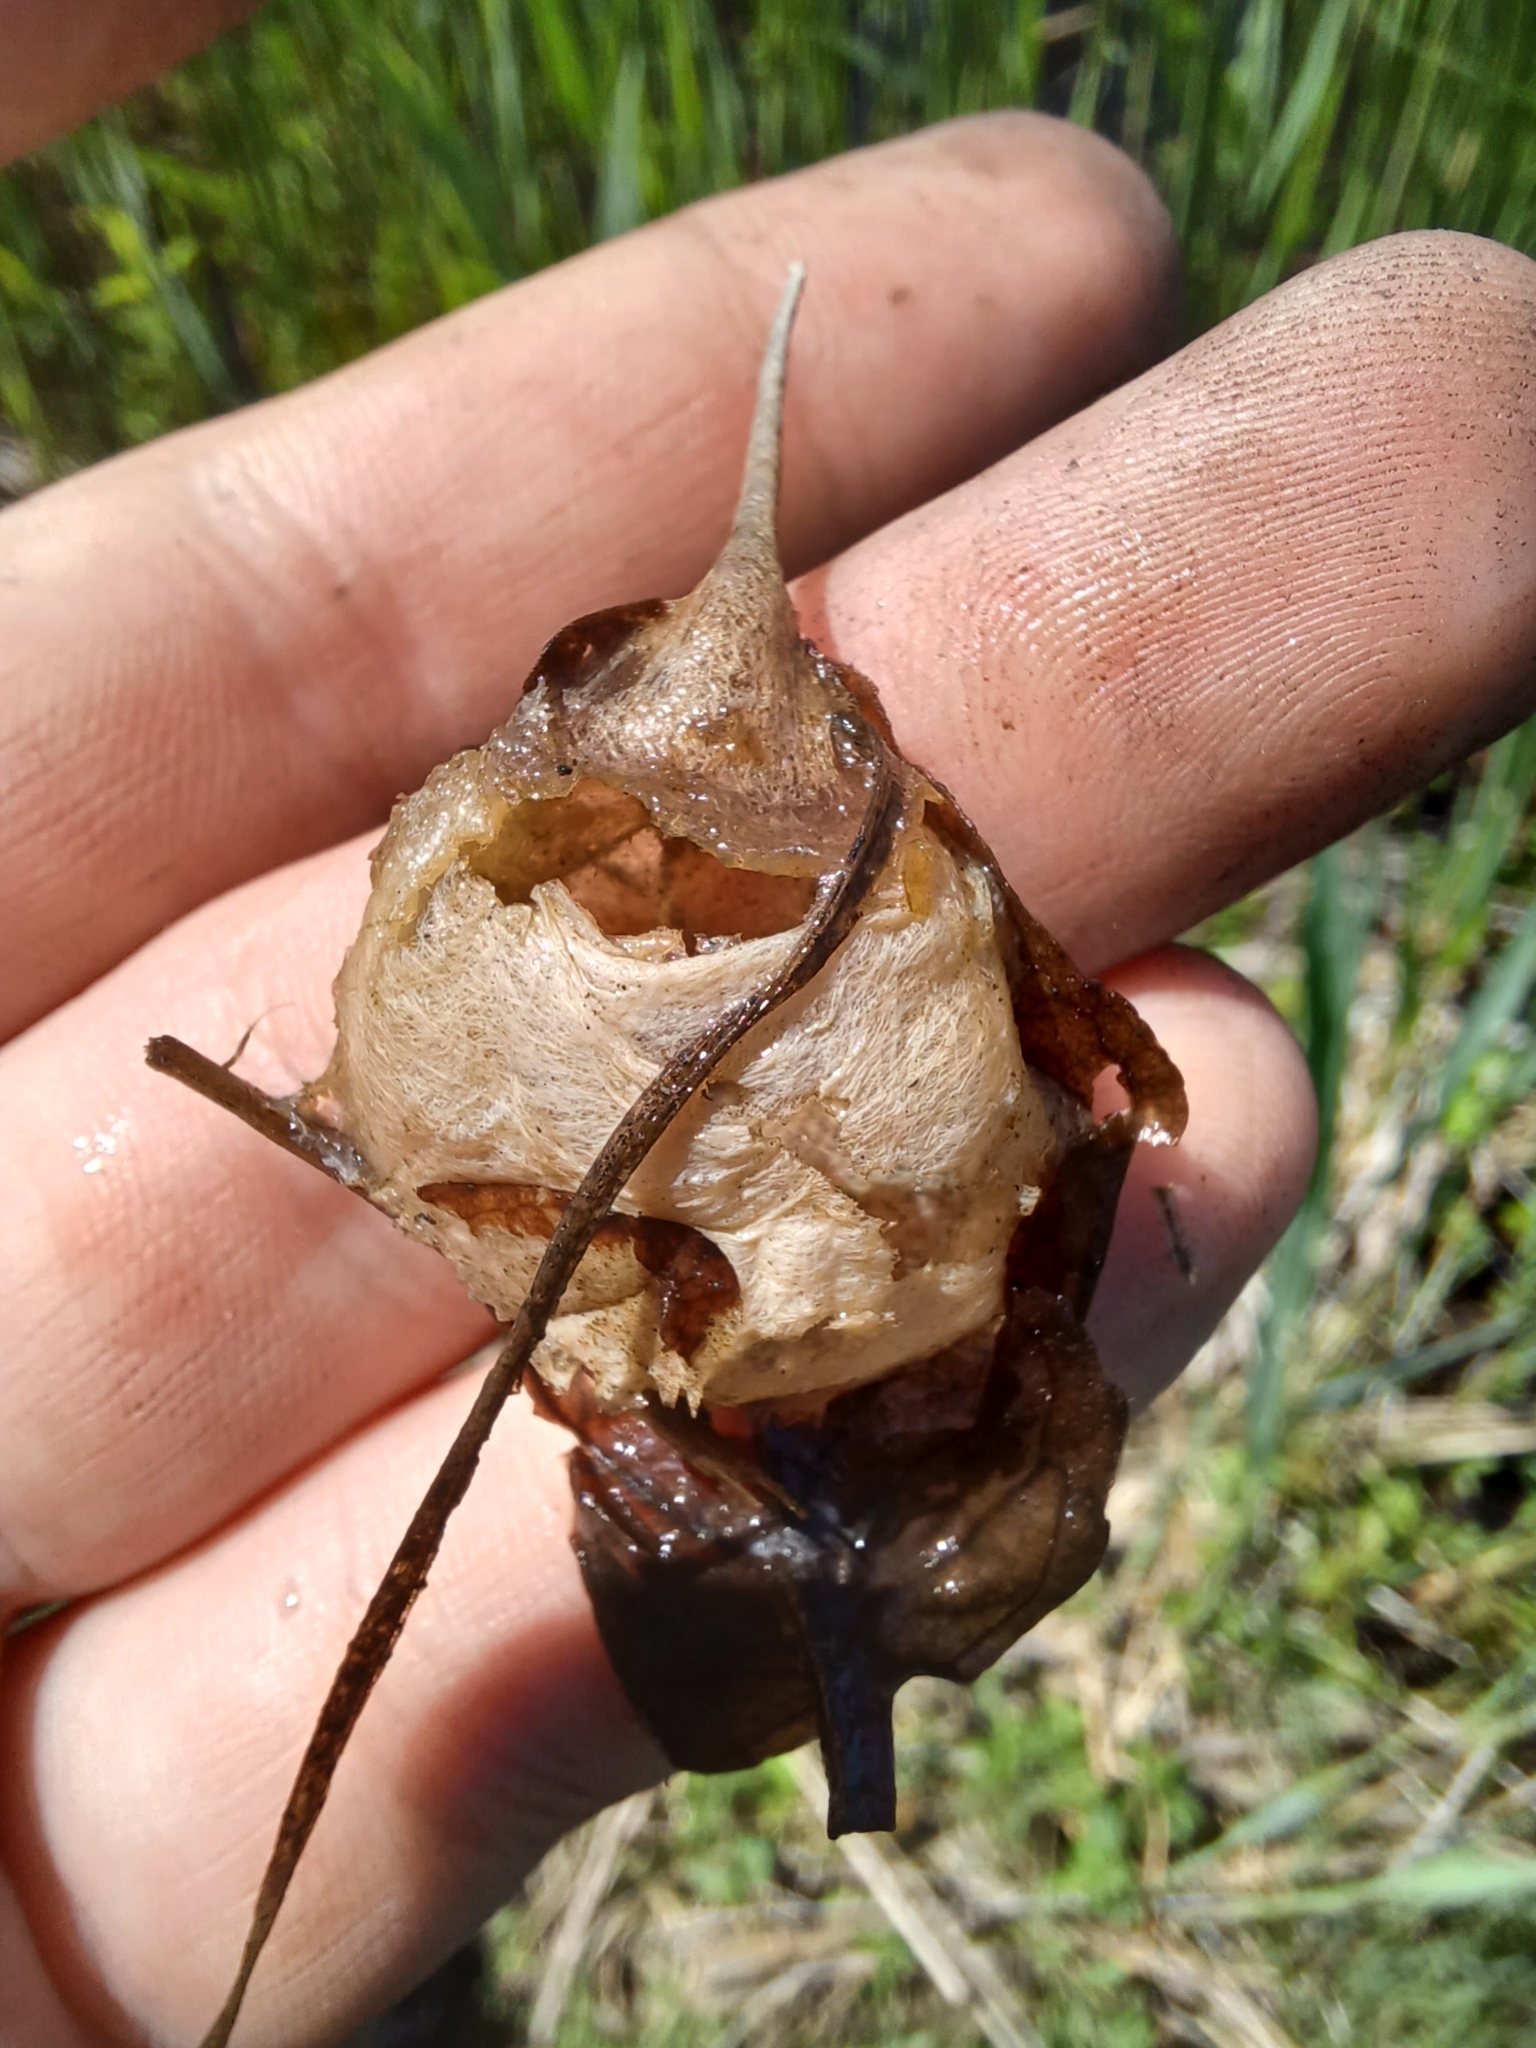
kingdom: Animalia
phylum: Arthropoda
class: Insecta
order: Coleoptera
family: Hydrophilidae
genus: Hydrophilus
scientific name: Hydrophilus
